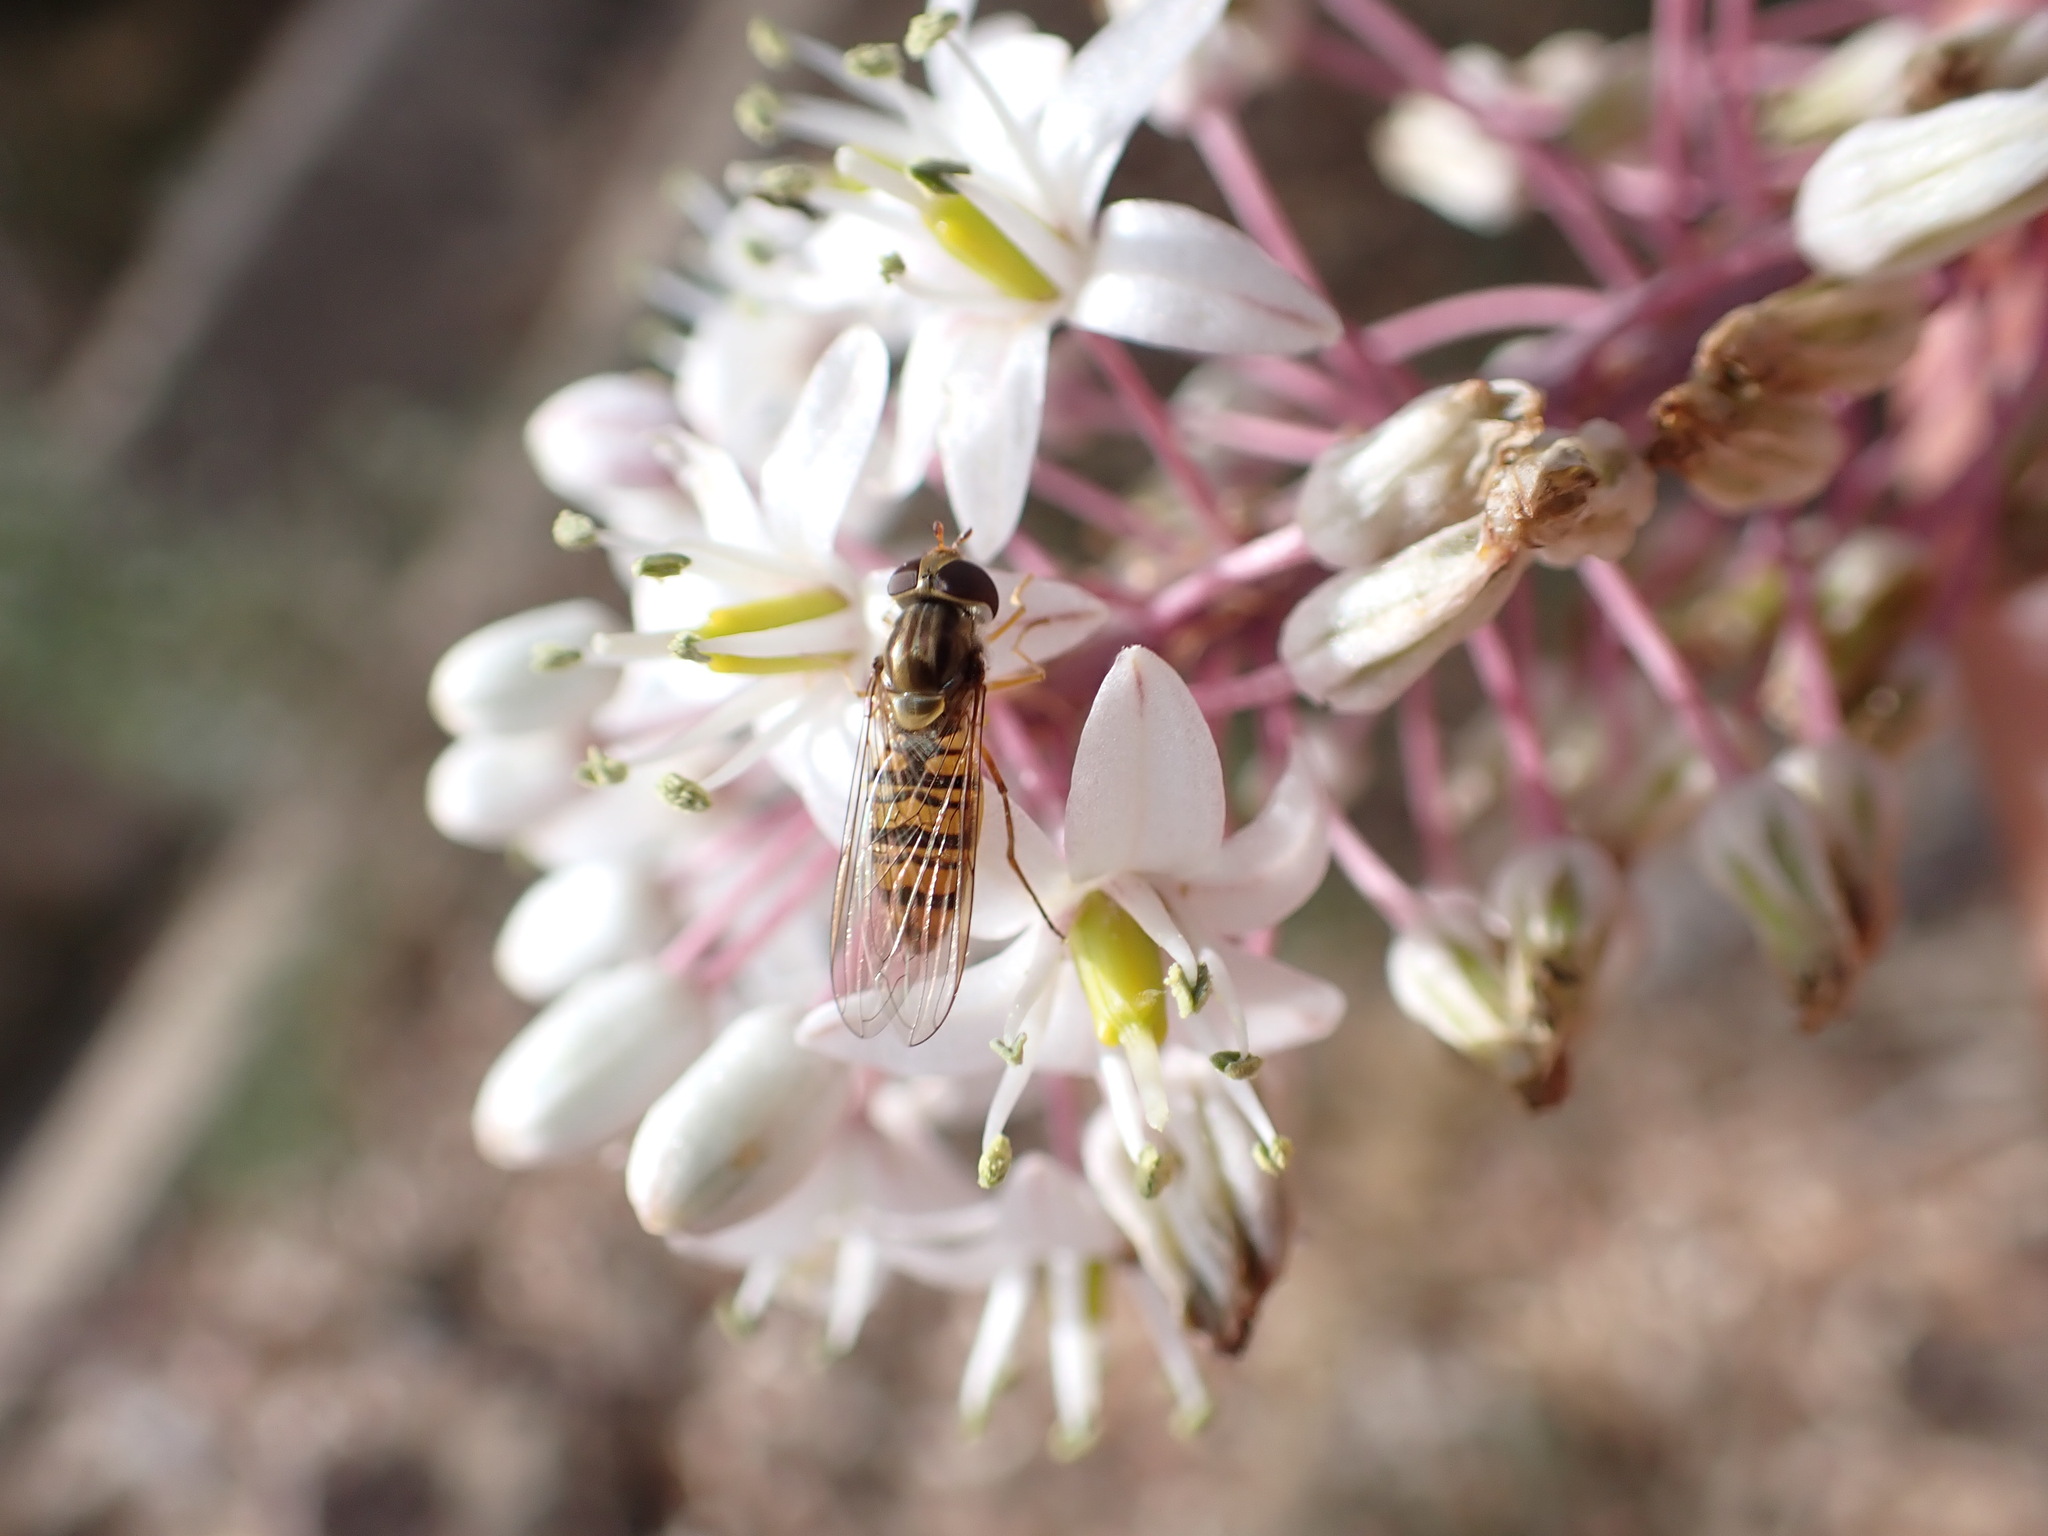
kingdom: Animalia
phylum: Arthropoda
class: Insecta
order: Diptera
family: Syrphidae
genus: Episyrphus
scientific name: Episyrphus balteatus
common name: Marmalade hoverfly
